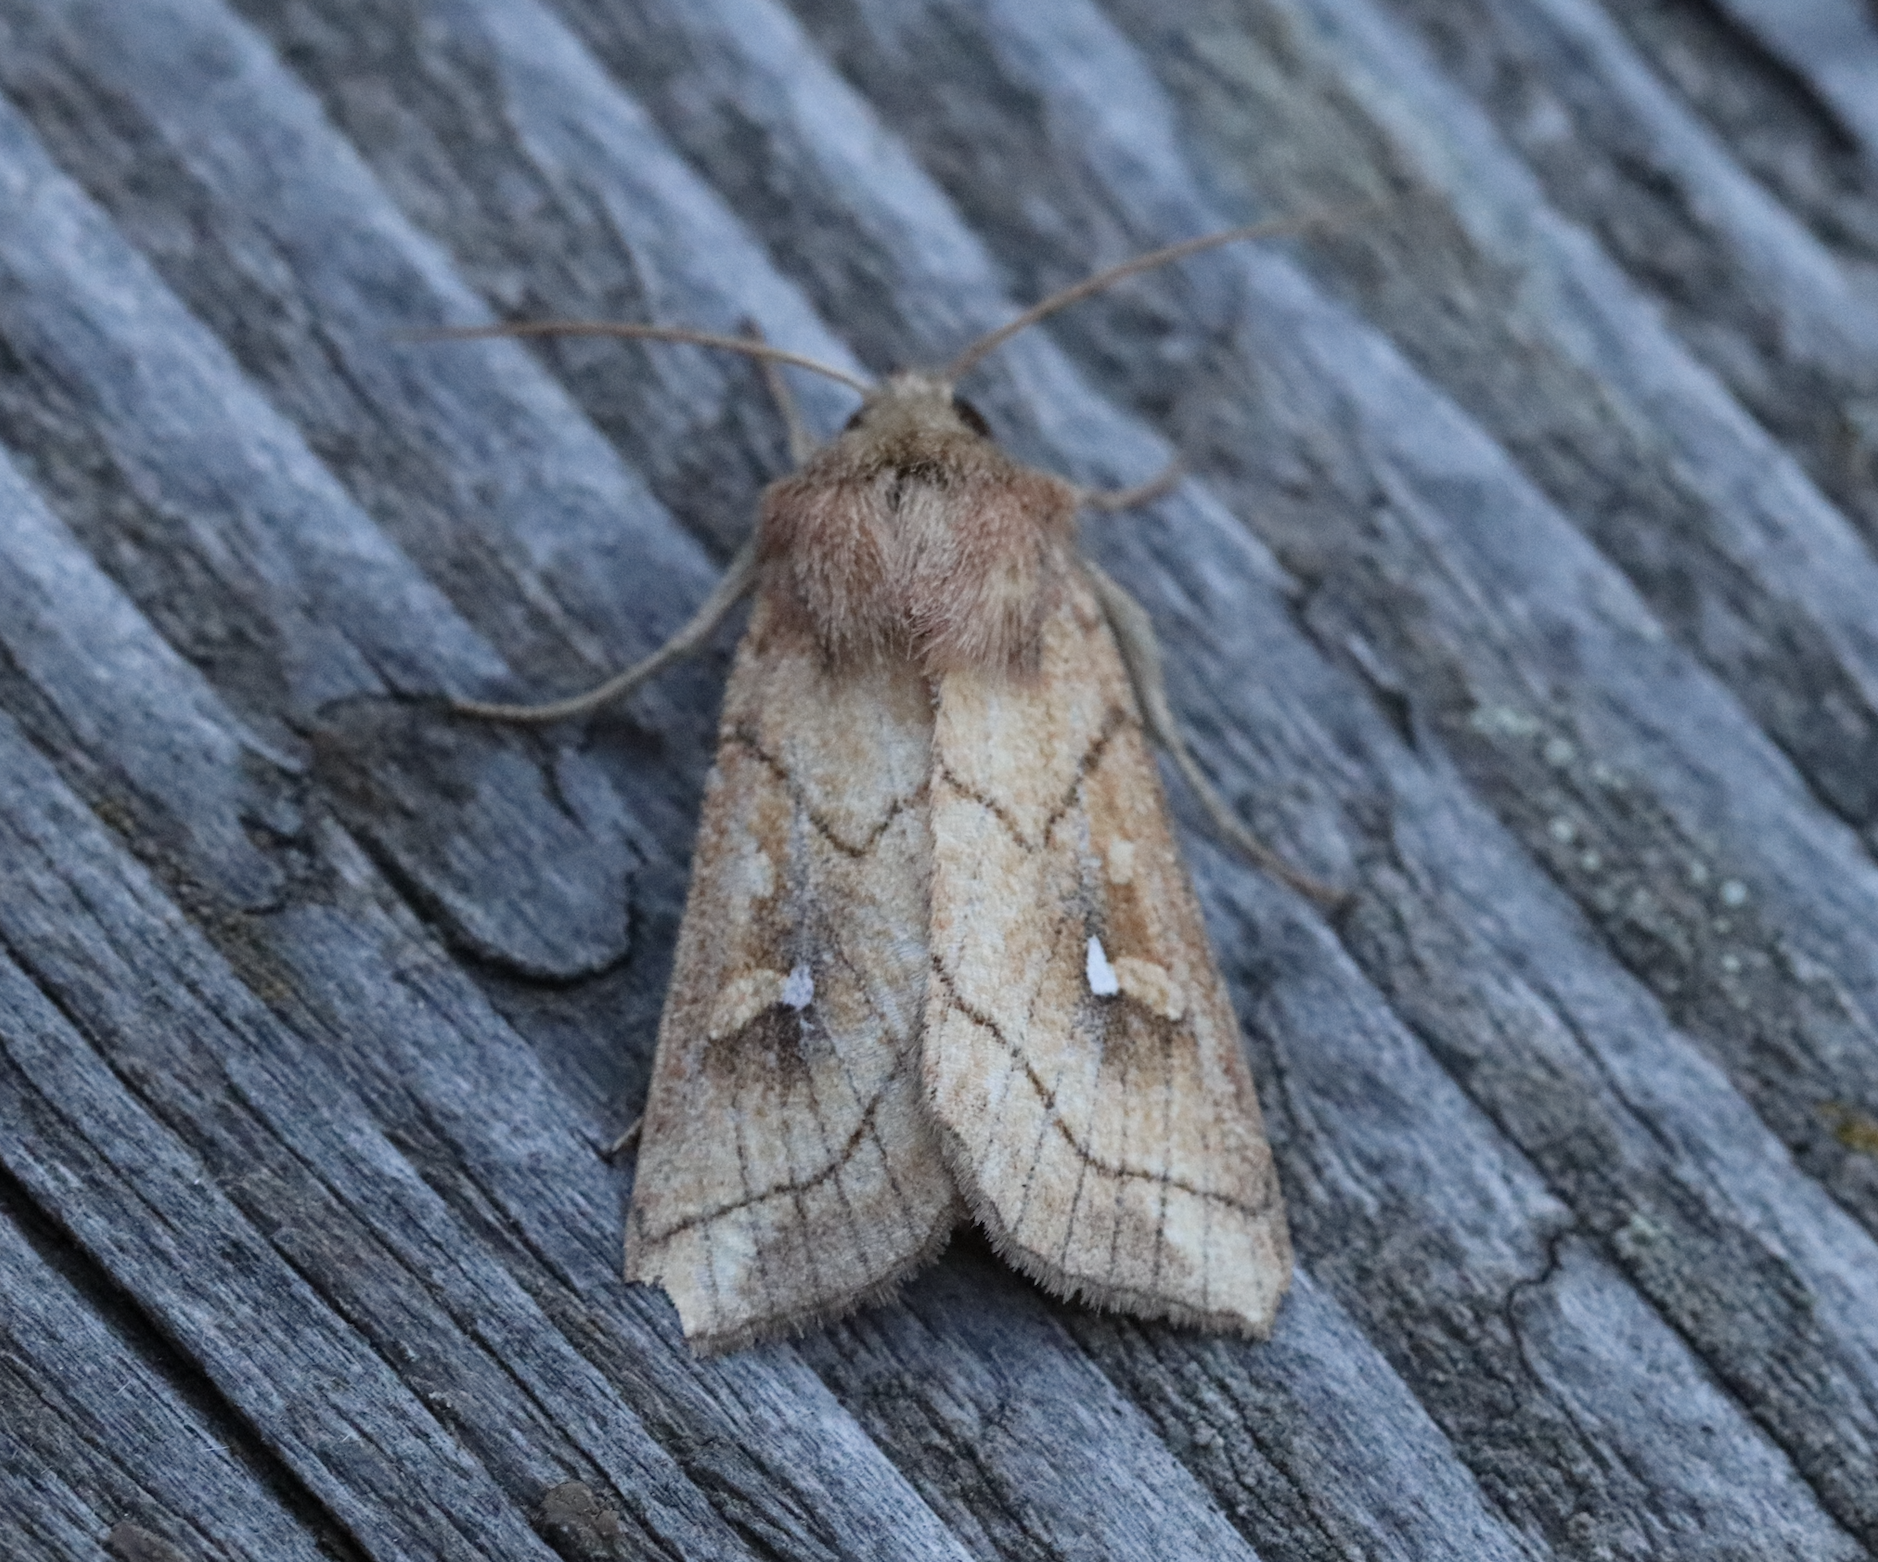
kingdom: Animalia
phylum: Arthropoda
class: Insecta
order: Lepidoptera
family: Noctuidae
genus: Mythimna
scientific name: Mythimna conigera
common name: Brown-line bright-eye
